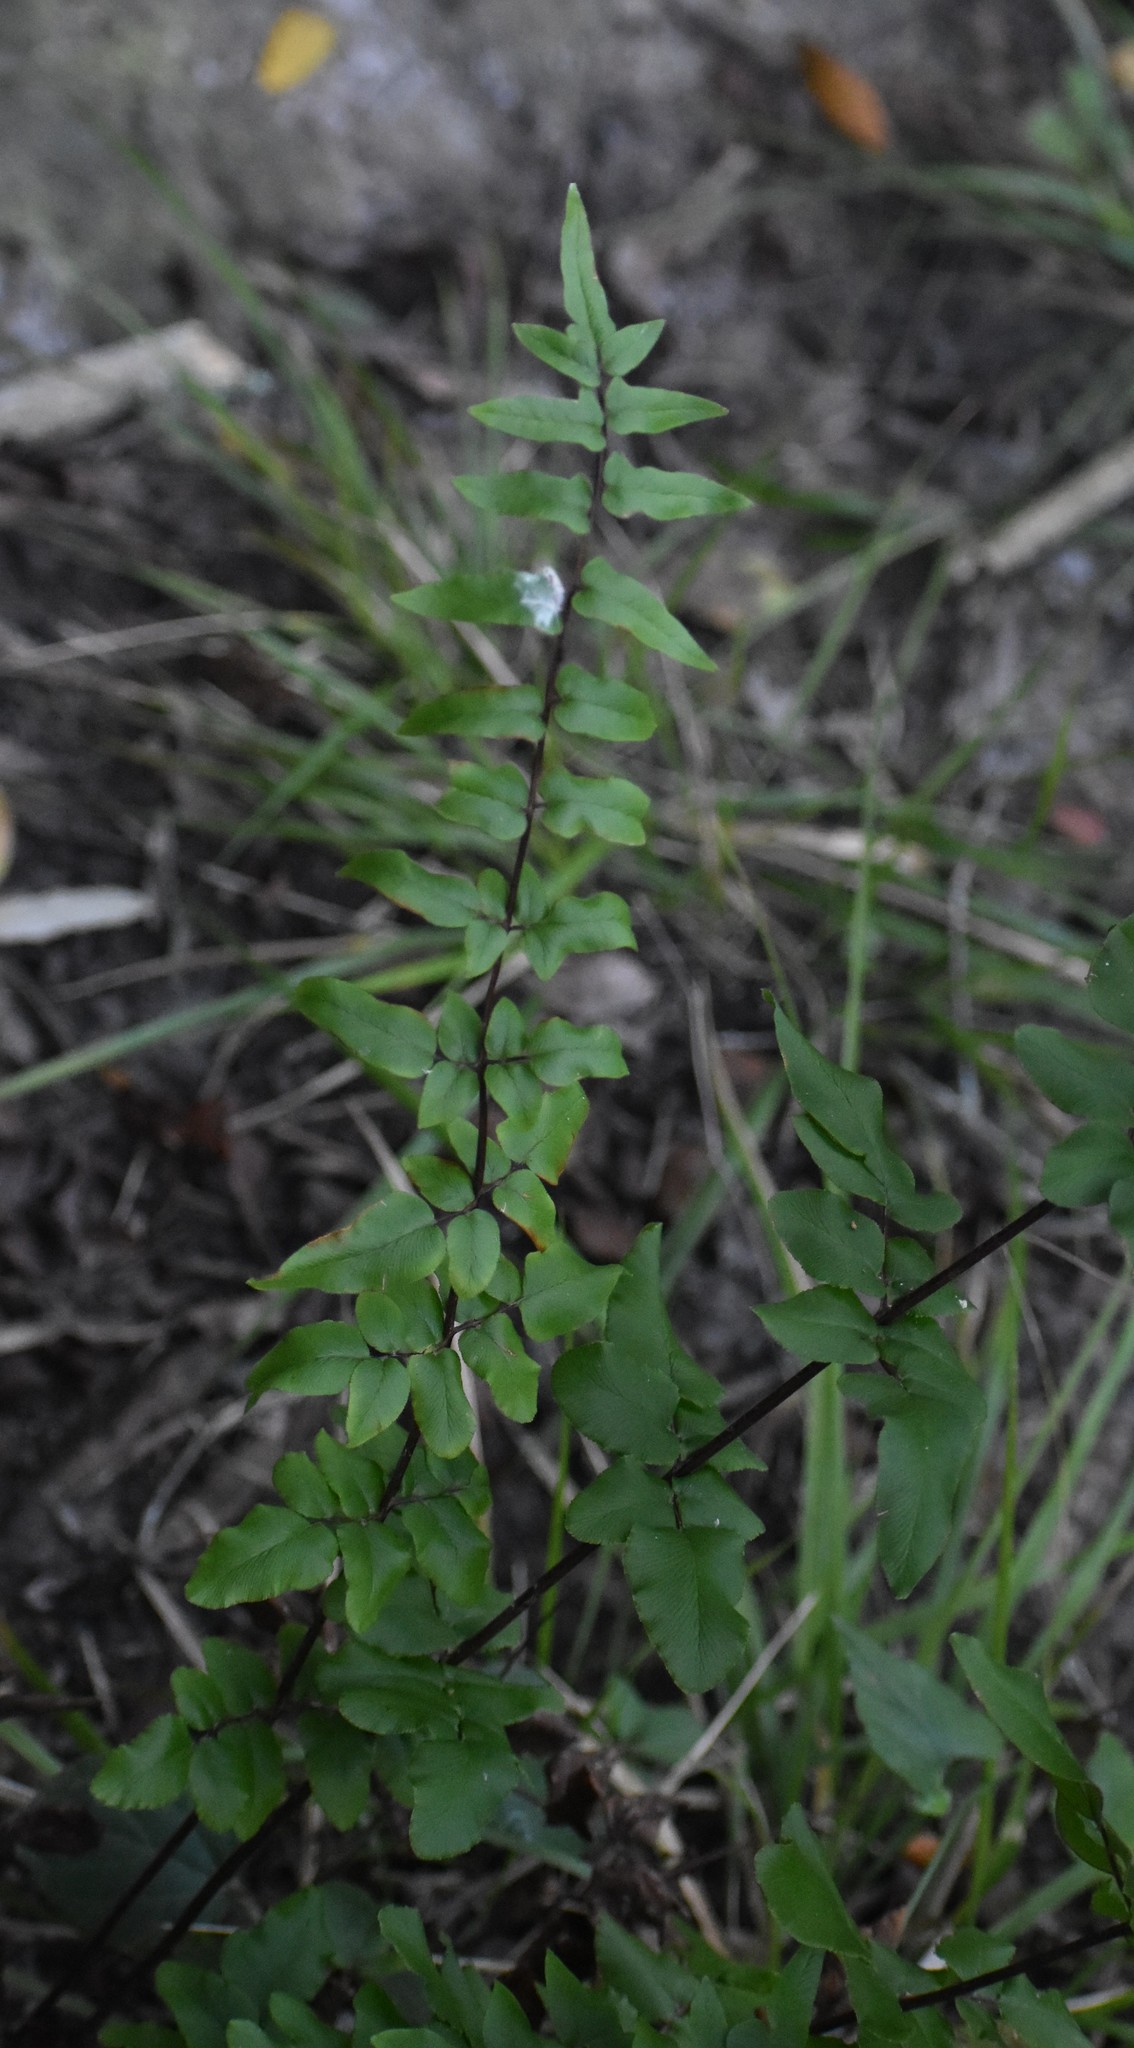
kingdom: Plantae
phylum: Tracheophyta
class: Polypodiopsida
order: Polypodiales
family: Pteridaceae
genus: Cheilanthes
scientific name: Cheilanthes viridis
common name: Green cliffbrake
